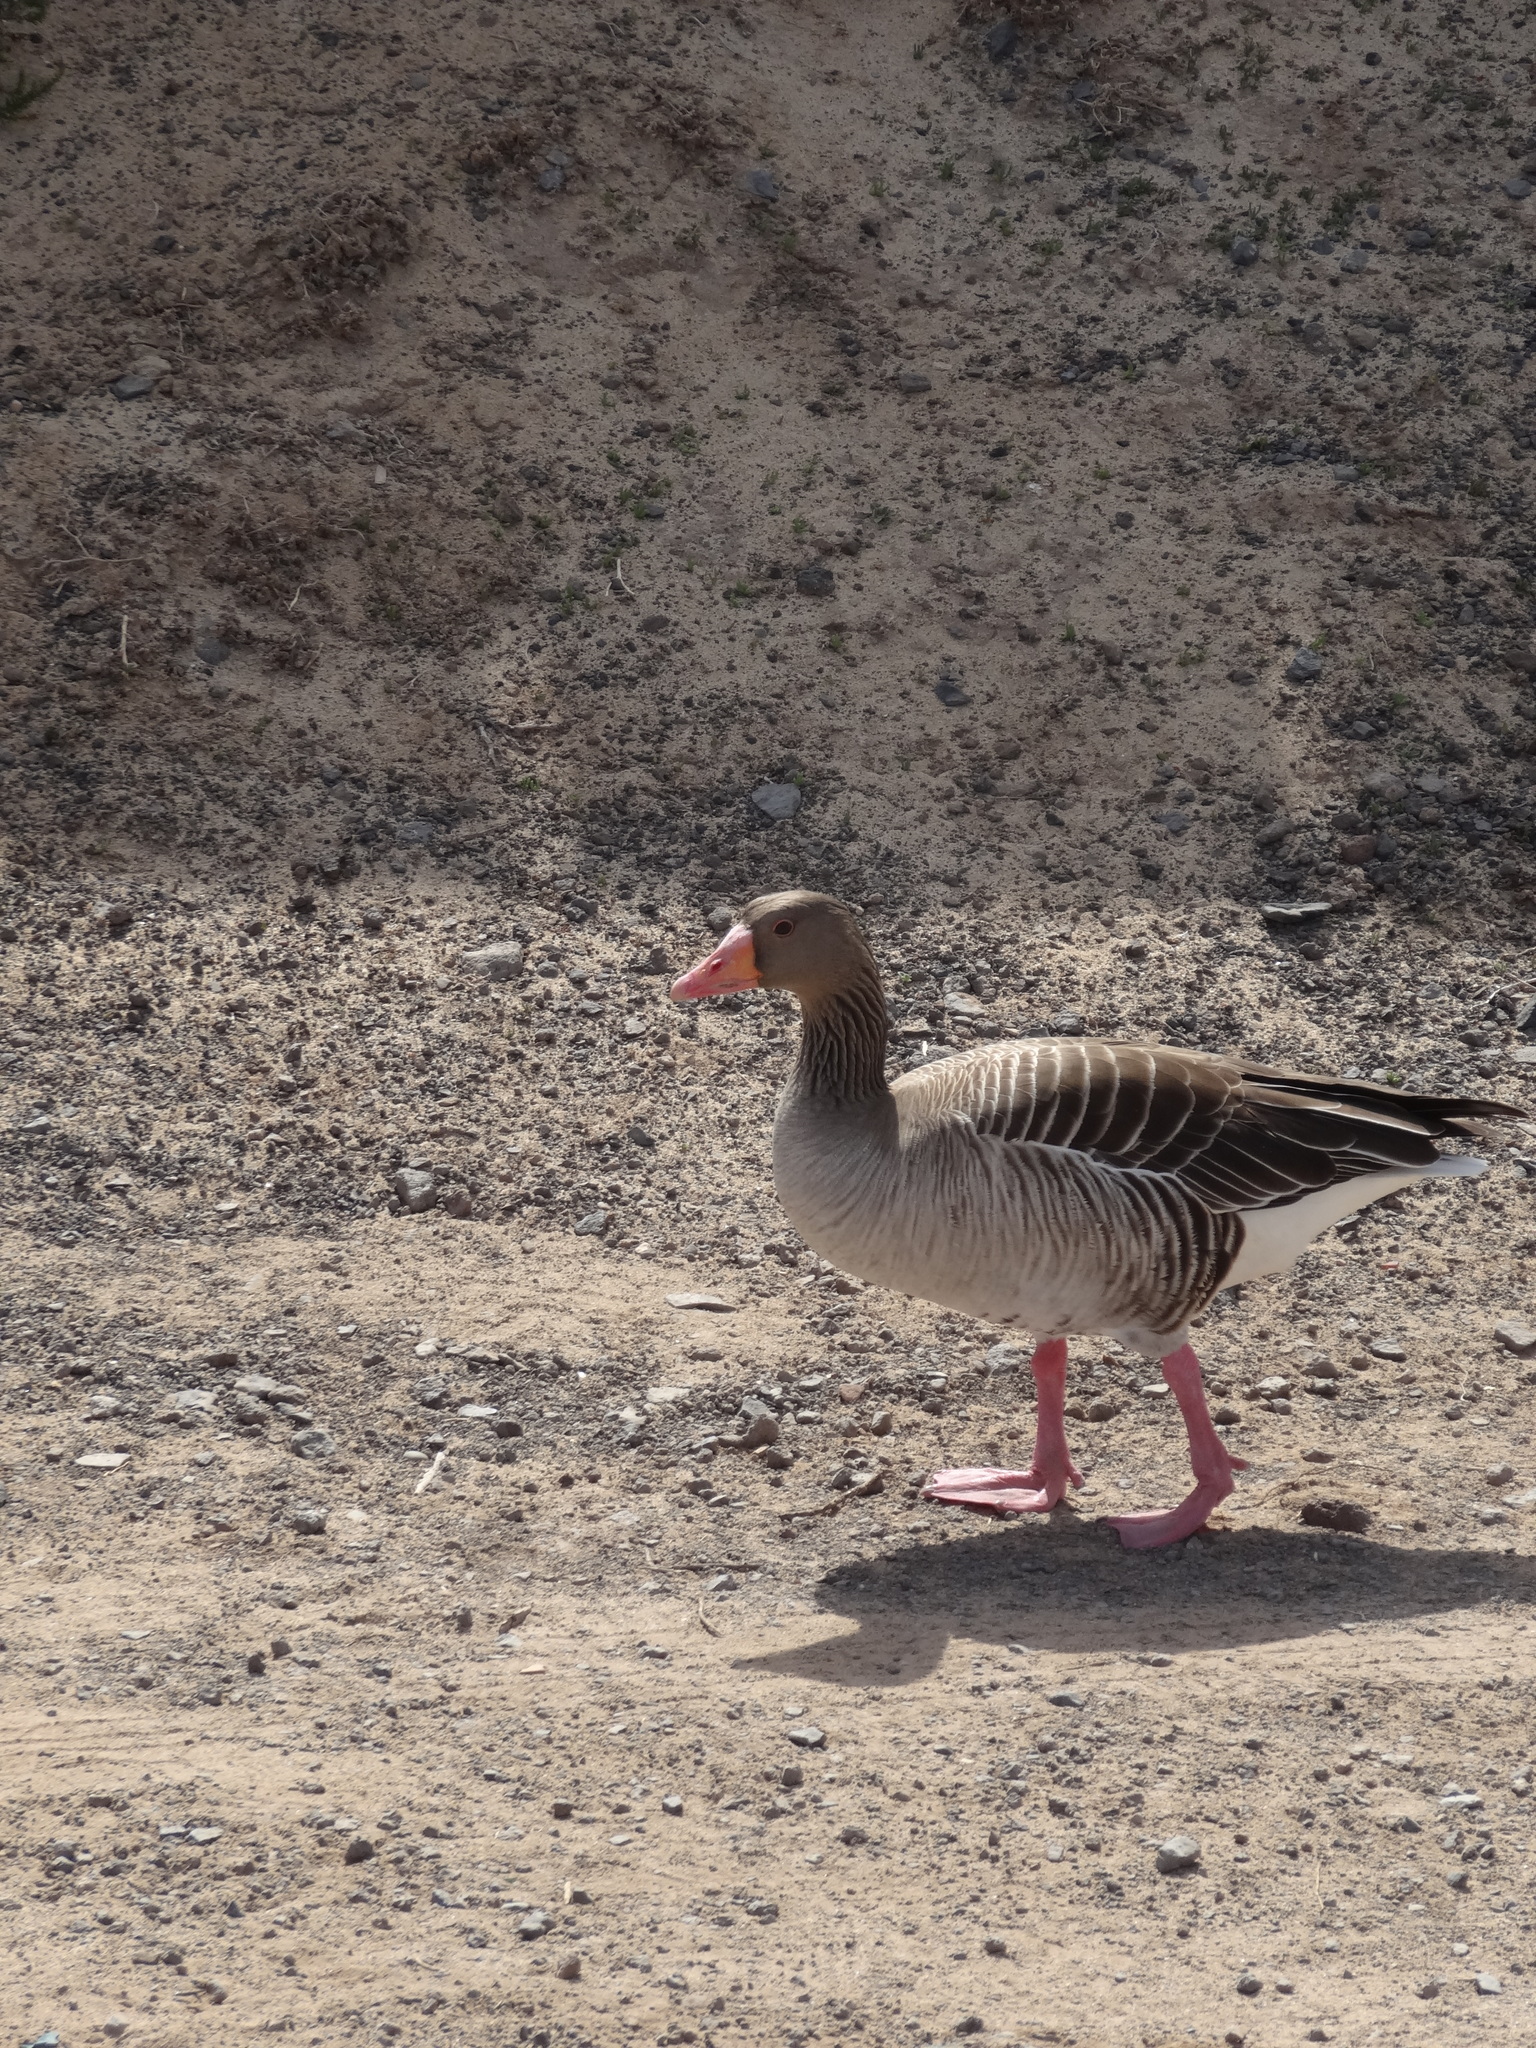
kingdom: Animalia
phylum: Chordata
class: Aves
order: Anseriformes
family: Anatidae
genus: Anser
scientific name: Anser anser
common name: Greylag goose
